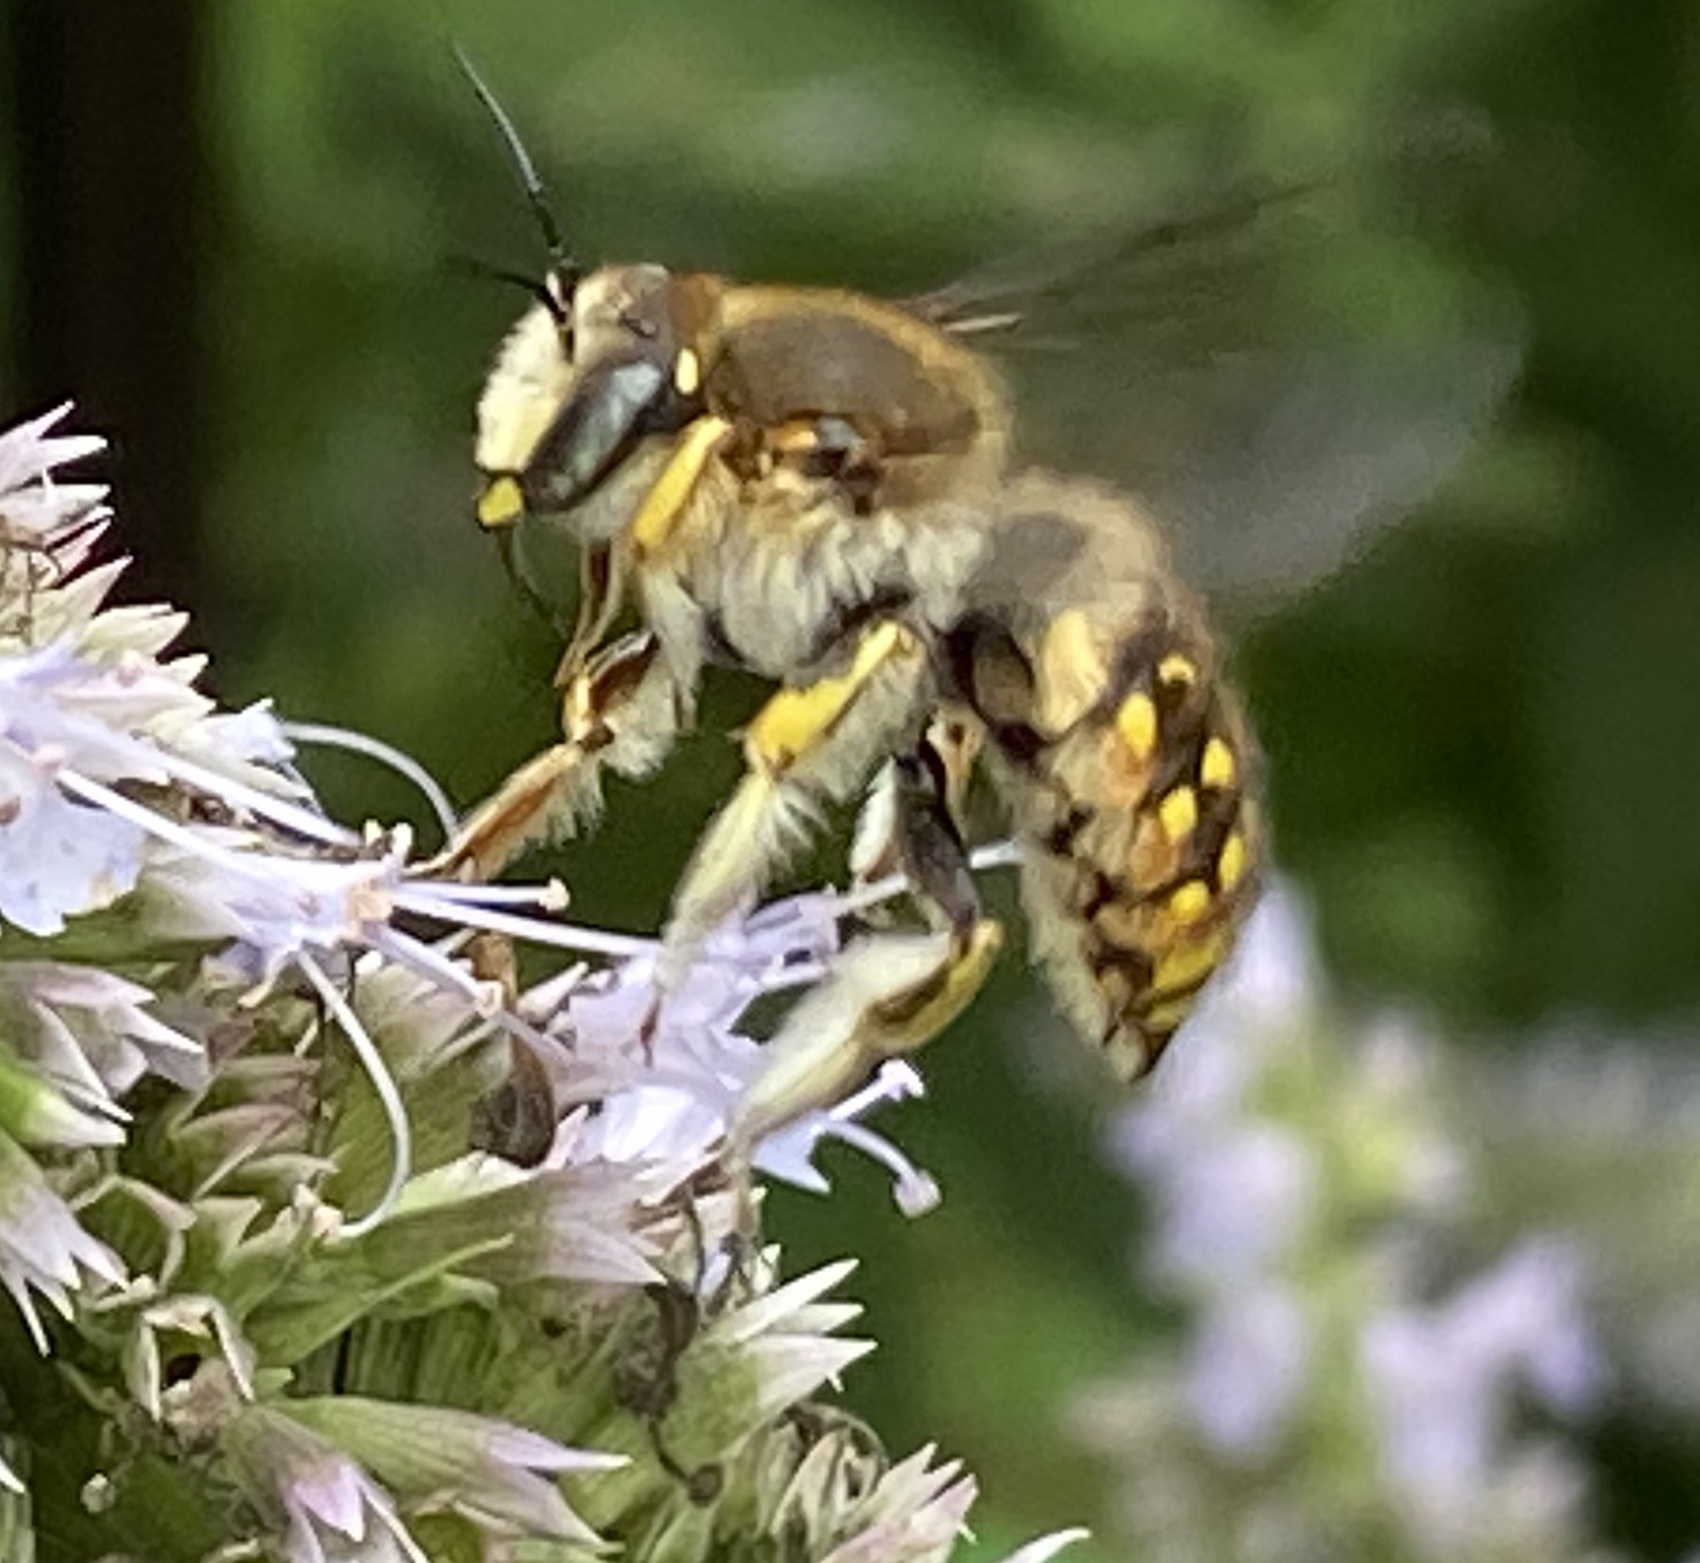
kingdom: Animalia
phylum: Arthropoda
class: Insecta
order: Hymenoptera
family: Megachilidae
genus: Anthidium
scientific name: Anthidium manicatum
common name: Wool carder bee
